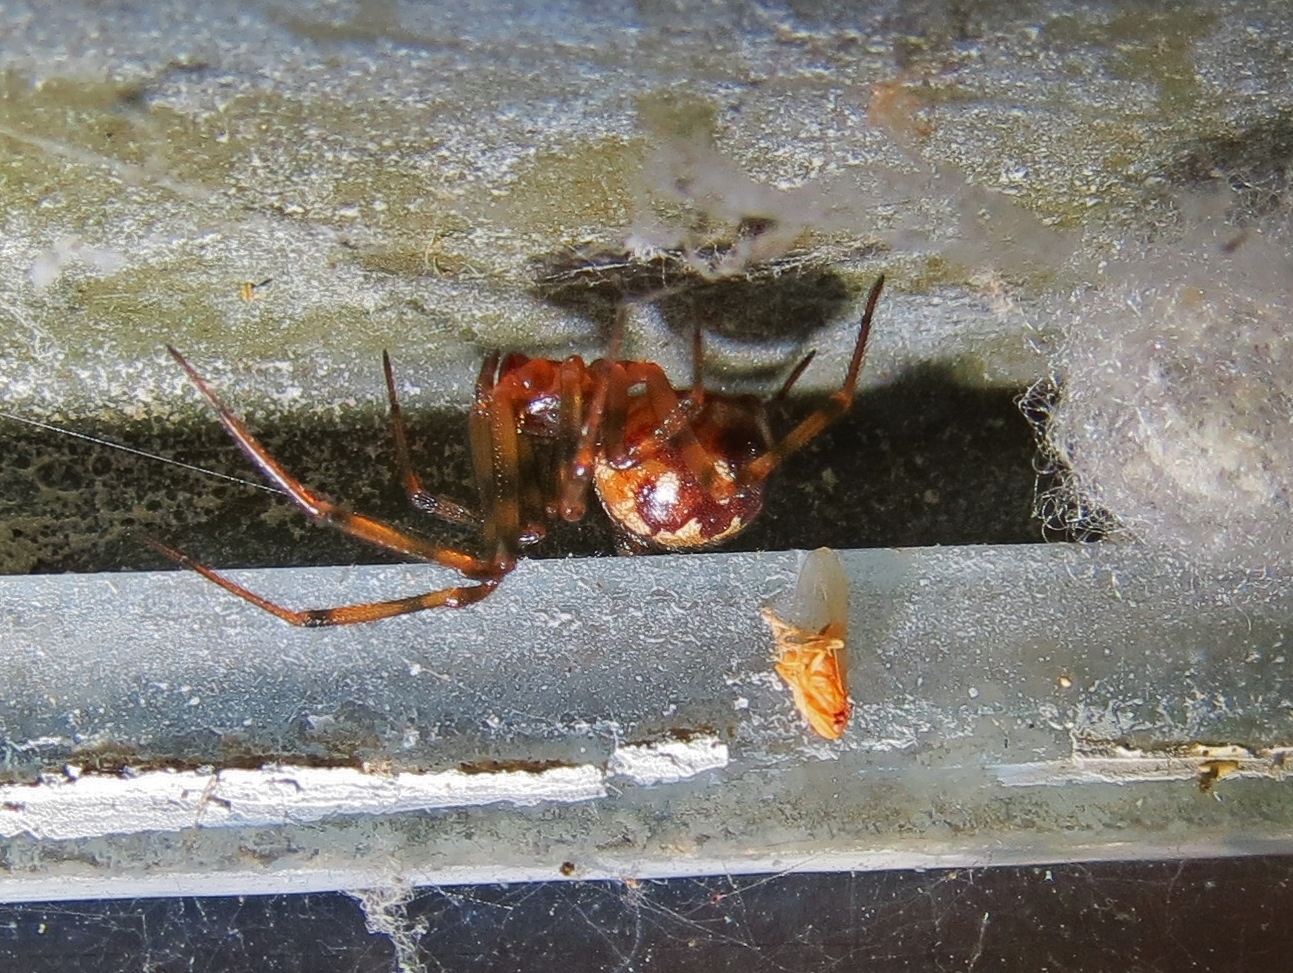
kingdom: Animalia
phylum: Arthropoda
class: Arachnida
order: Araneae
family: Theridiidae
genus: Steatoda
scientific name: Steatoda triangulosa
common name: Triangulate bud spider
